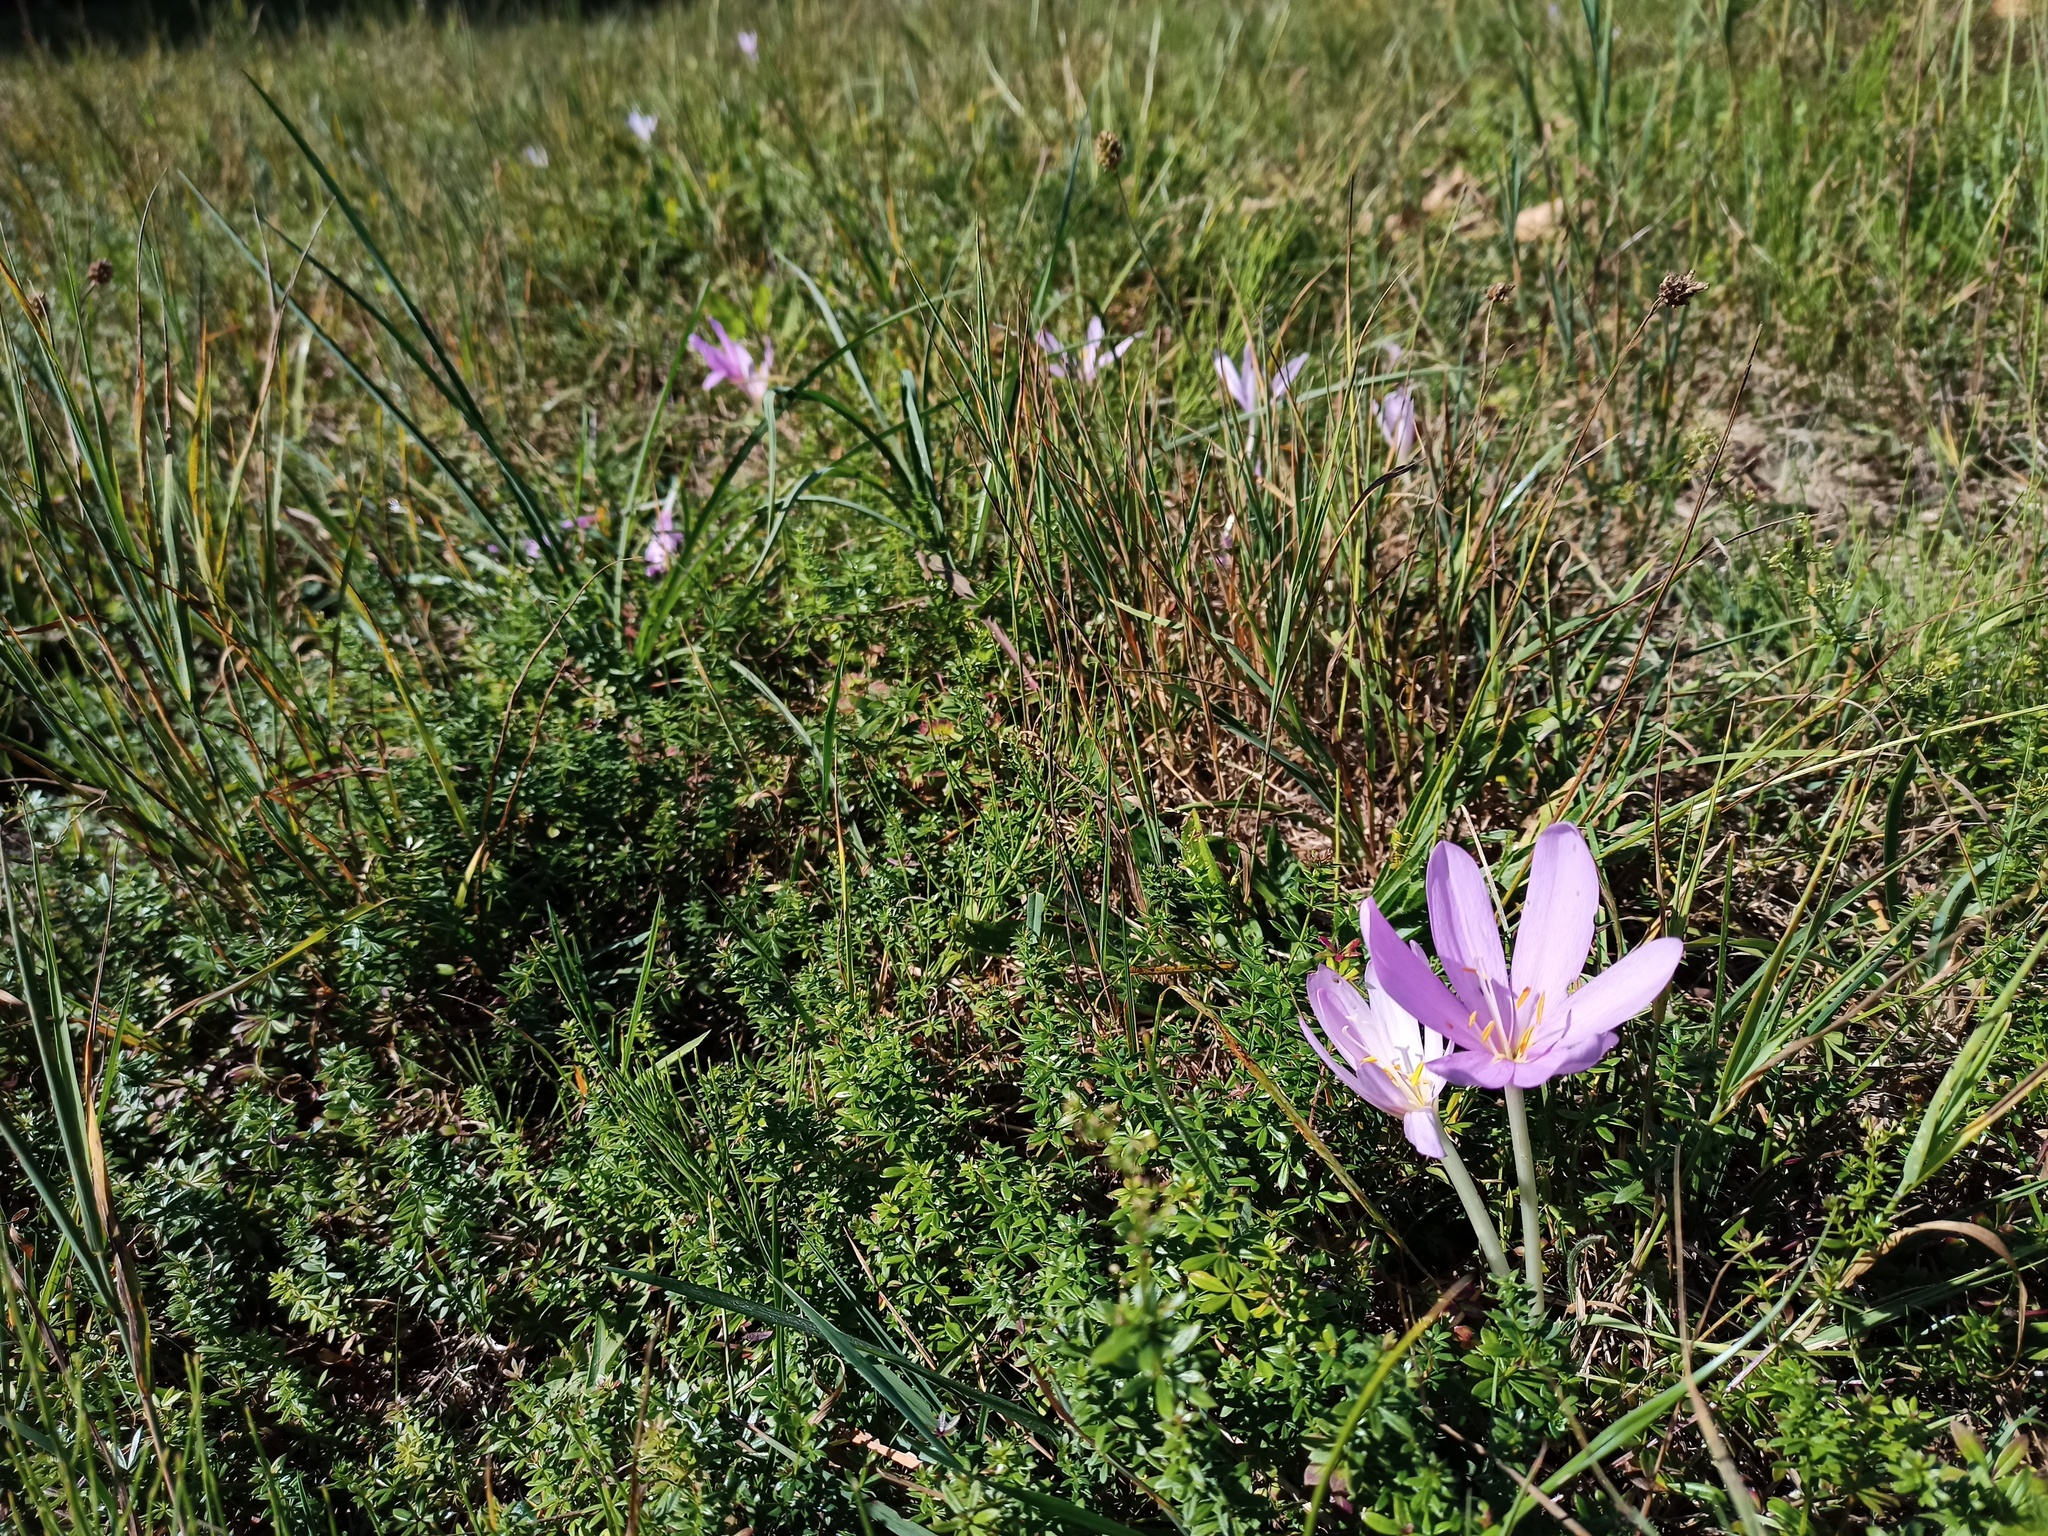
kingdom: Plantae
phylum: Tracheophyta
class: Liliopsida
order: Liliales
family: Colchicaceae
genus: Colchicum
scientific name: Colchicum autumnale
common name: Autumn crocus
